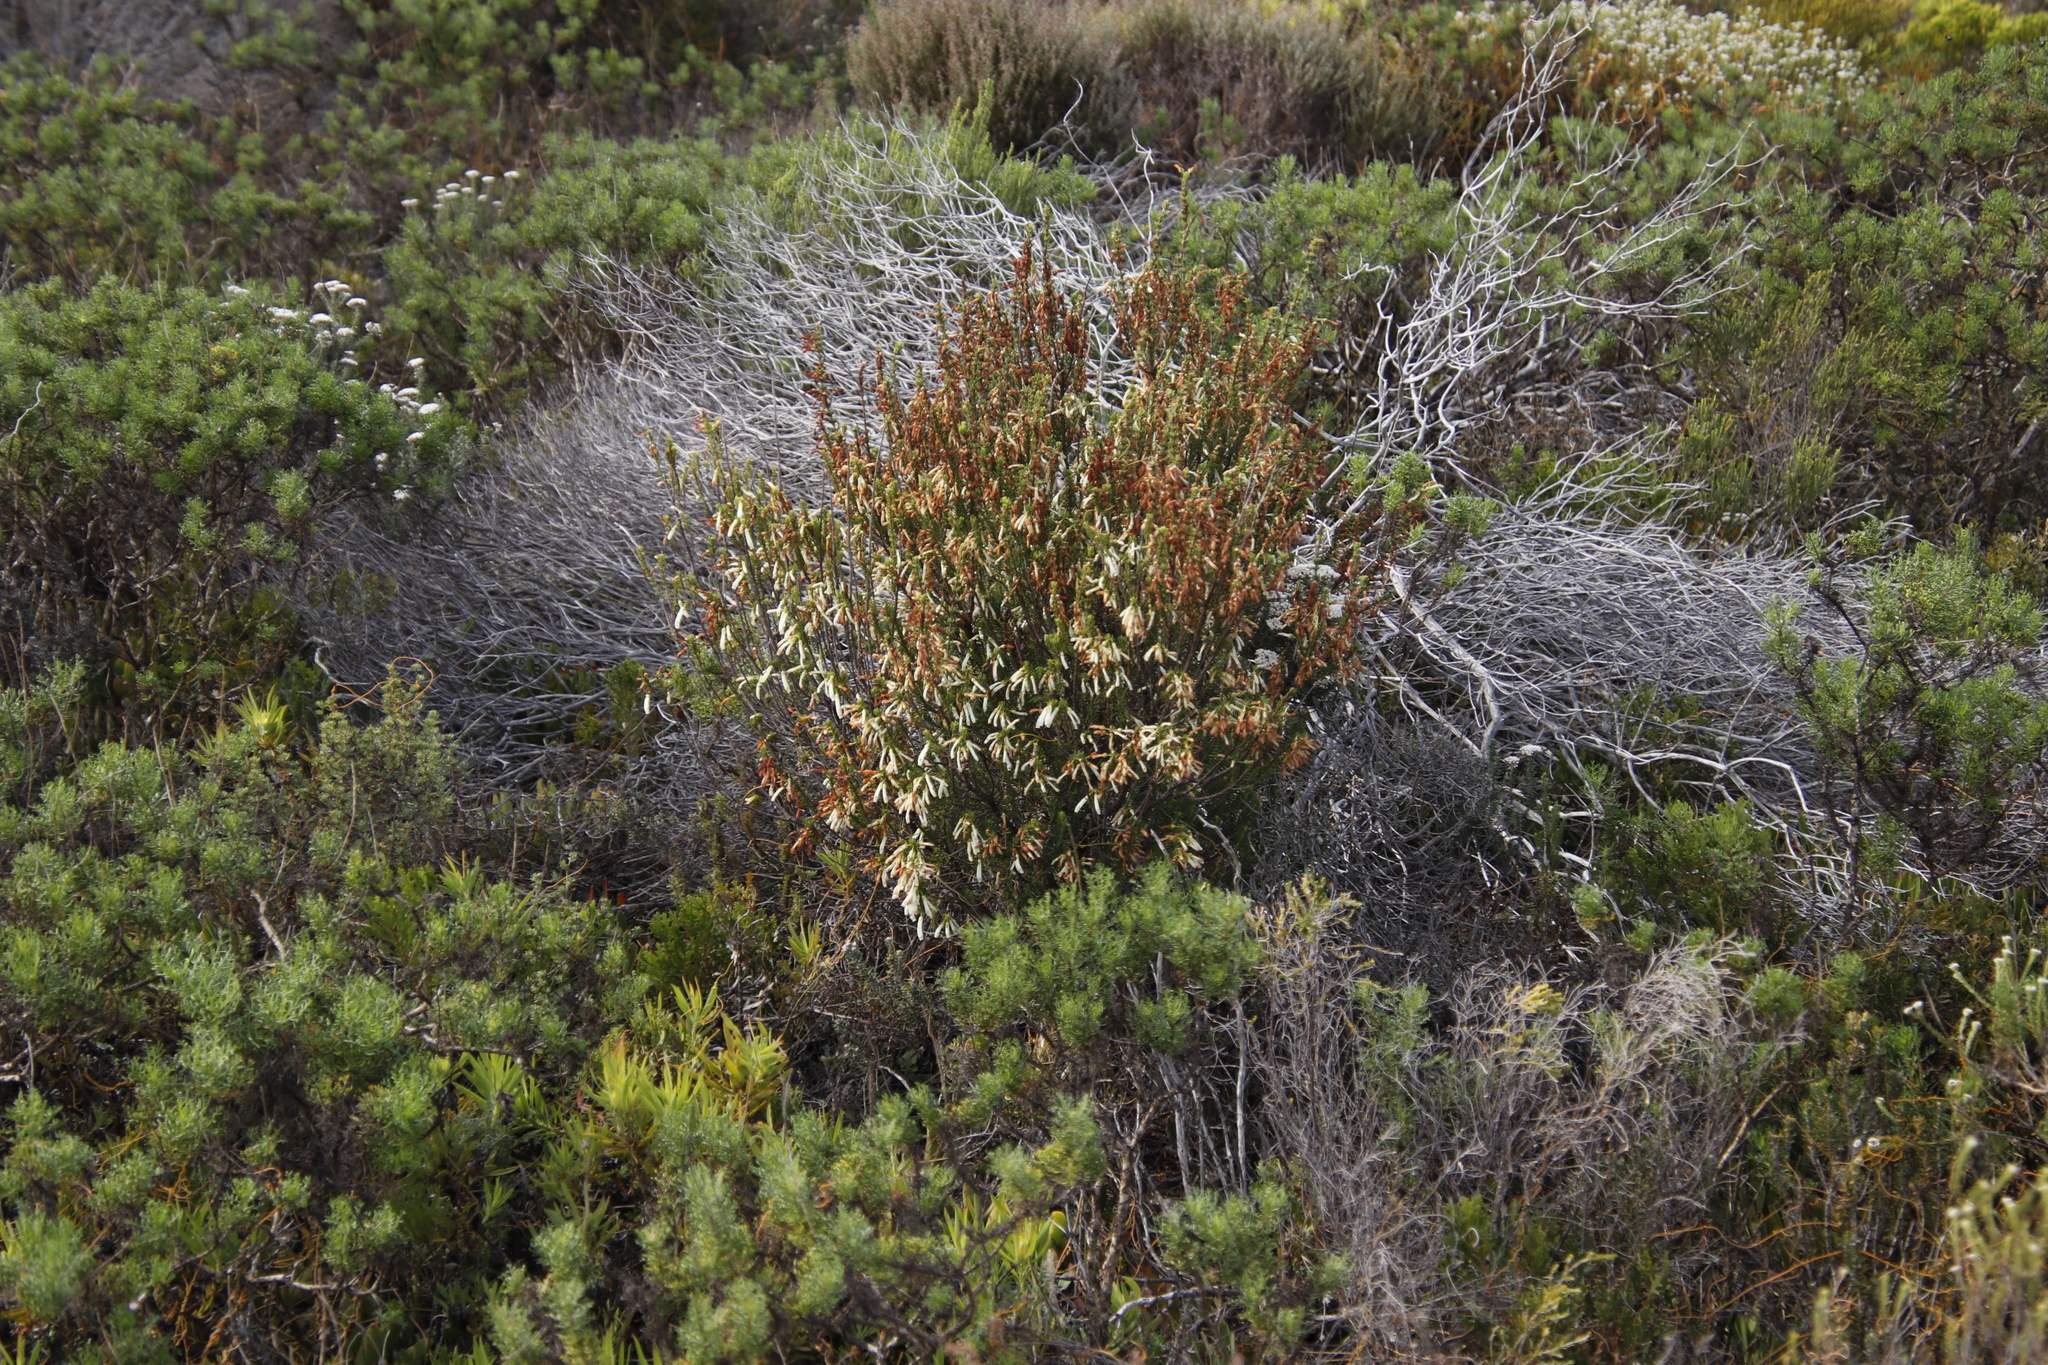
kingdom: Plantae
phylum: Tracheophyta
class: Magnoliopsida
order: Ericales
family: Ericaceae
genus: Erica
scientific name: Erica mammosa
